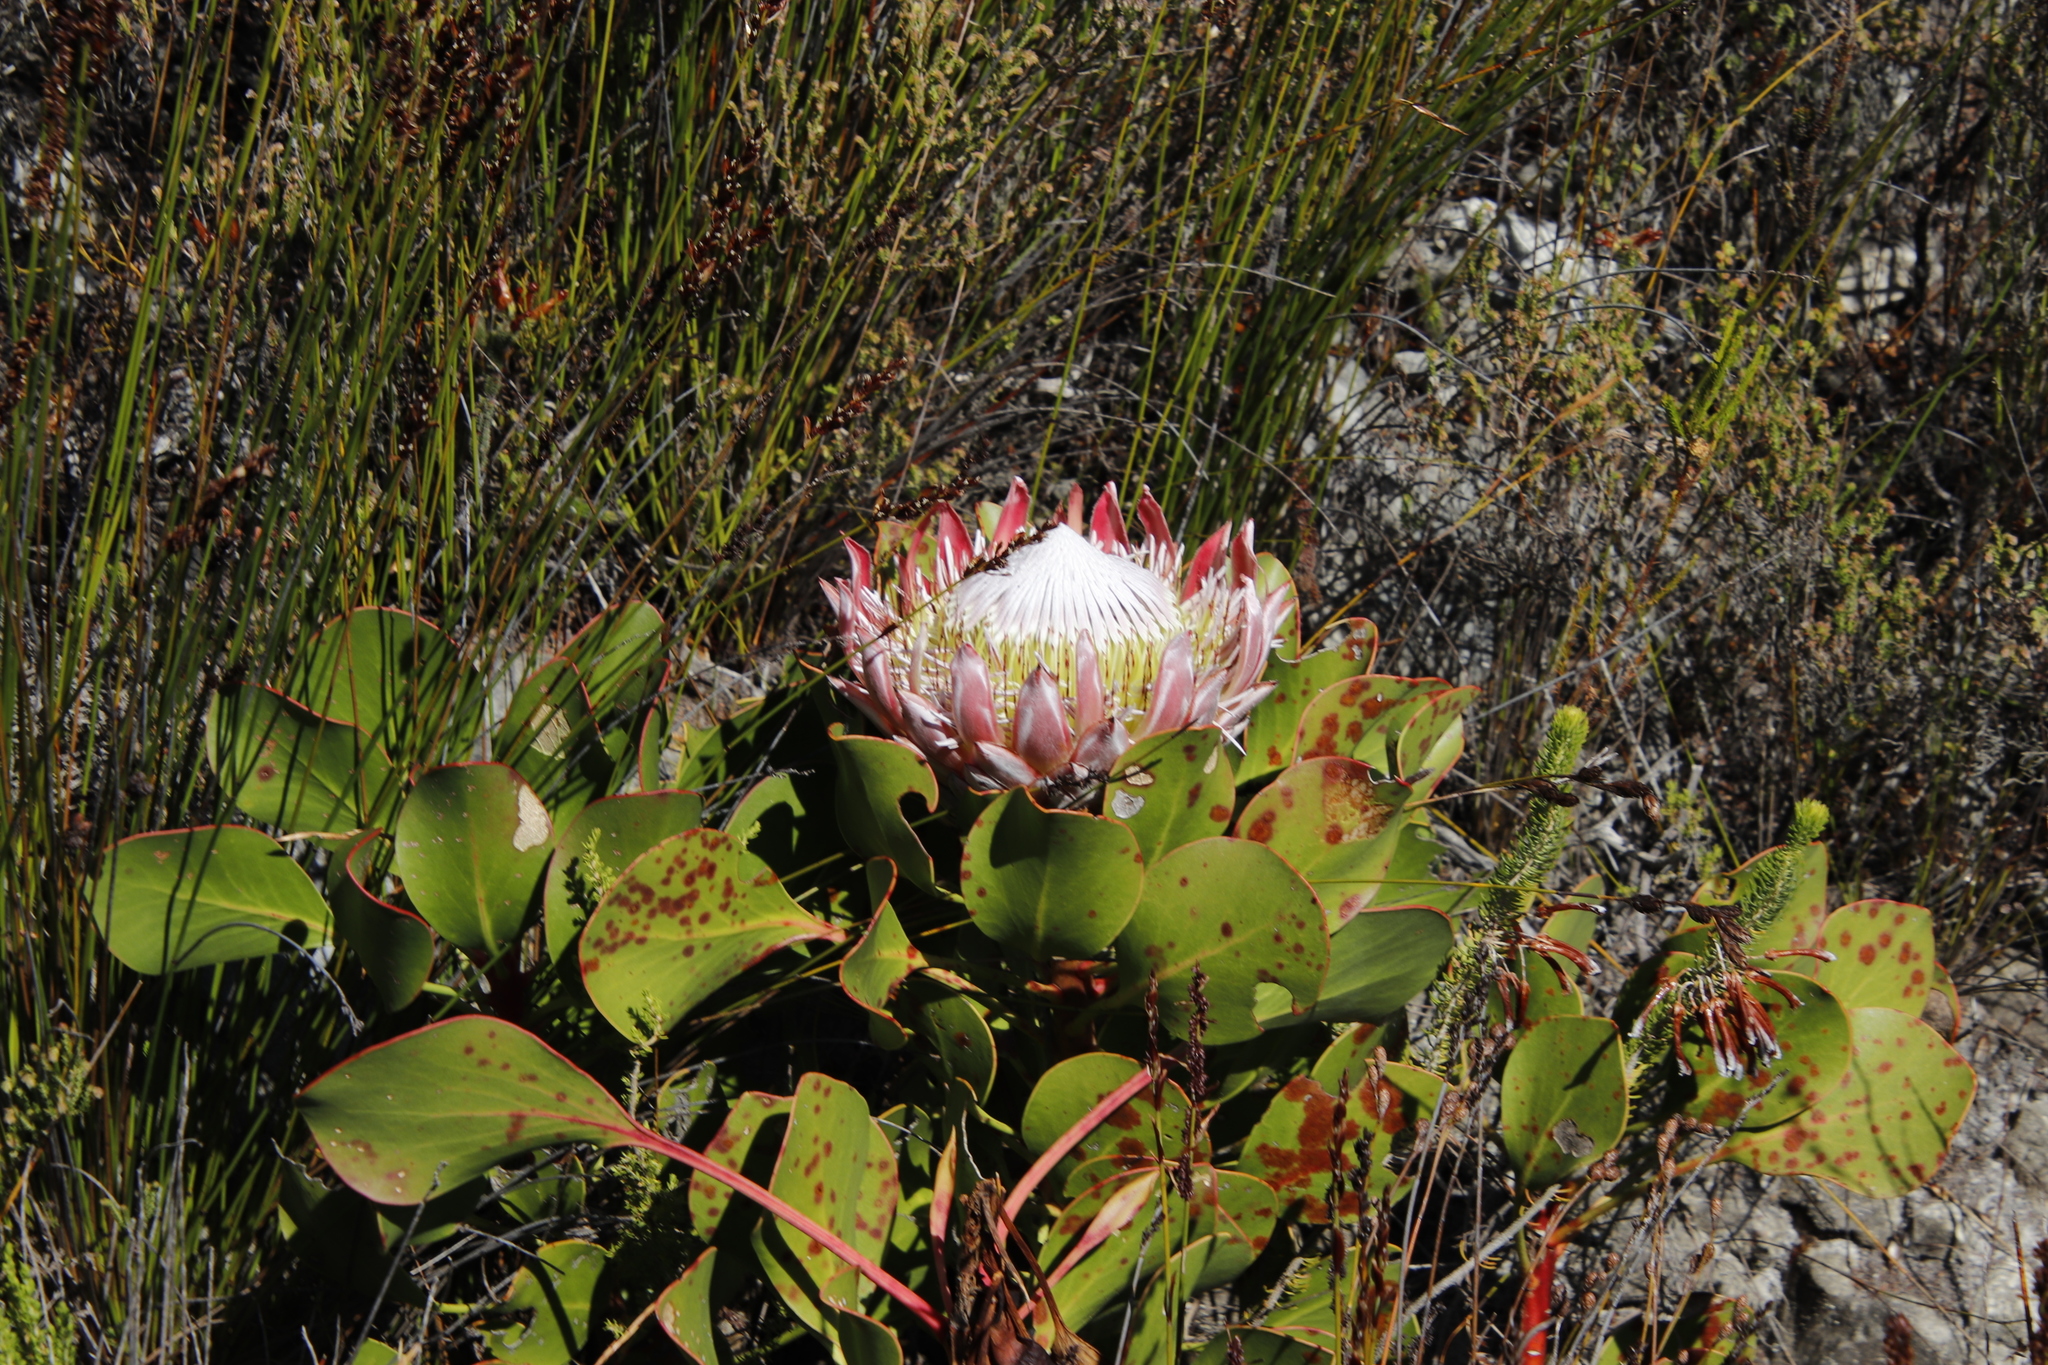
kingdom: Plantae
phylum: Tracheophyta
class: Magnoliopsida
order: Proteales
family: Proteaceae
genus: Protea
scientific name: Protea cynaroides
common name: King protea
